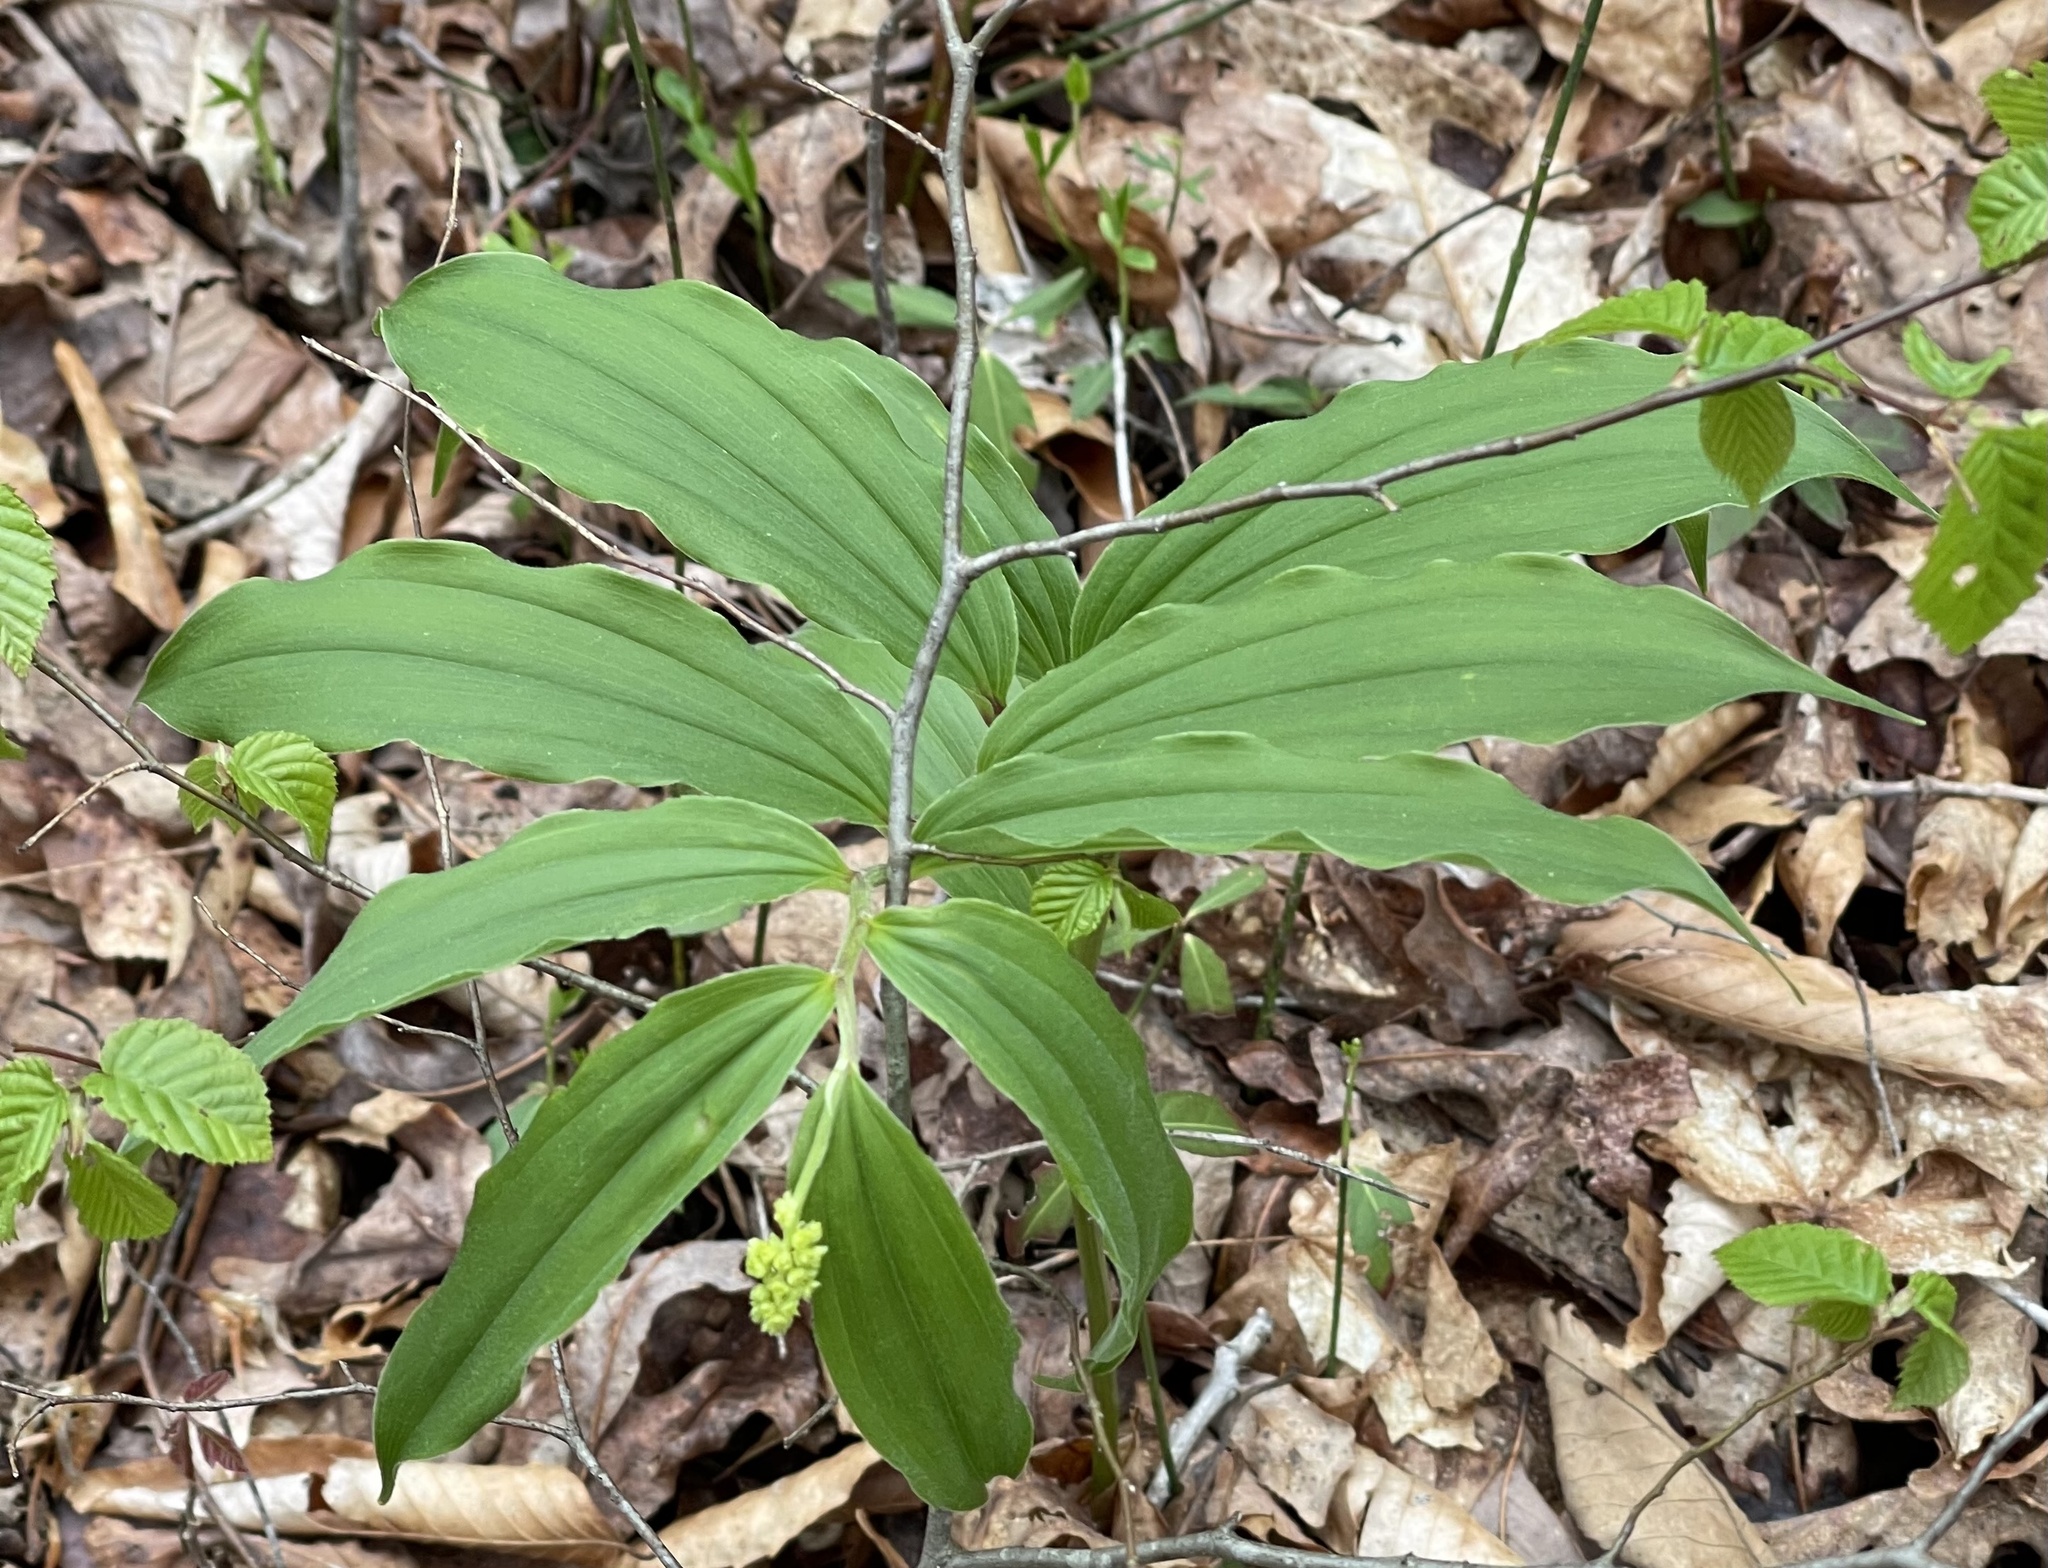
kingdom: Plantae
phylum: Tracheophyta
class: Liliopsida
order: Asparagales
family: Asparagaceae
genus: Maianthemum
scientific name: Maianthemum racemosum
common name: False spikenard
